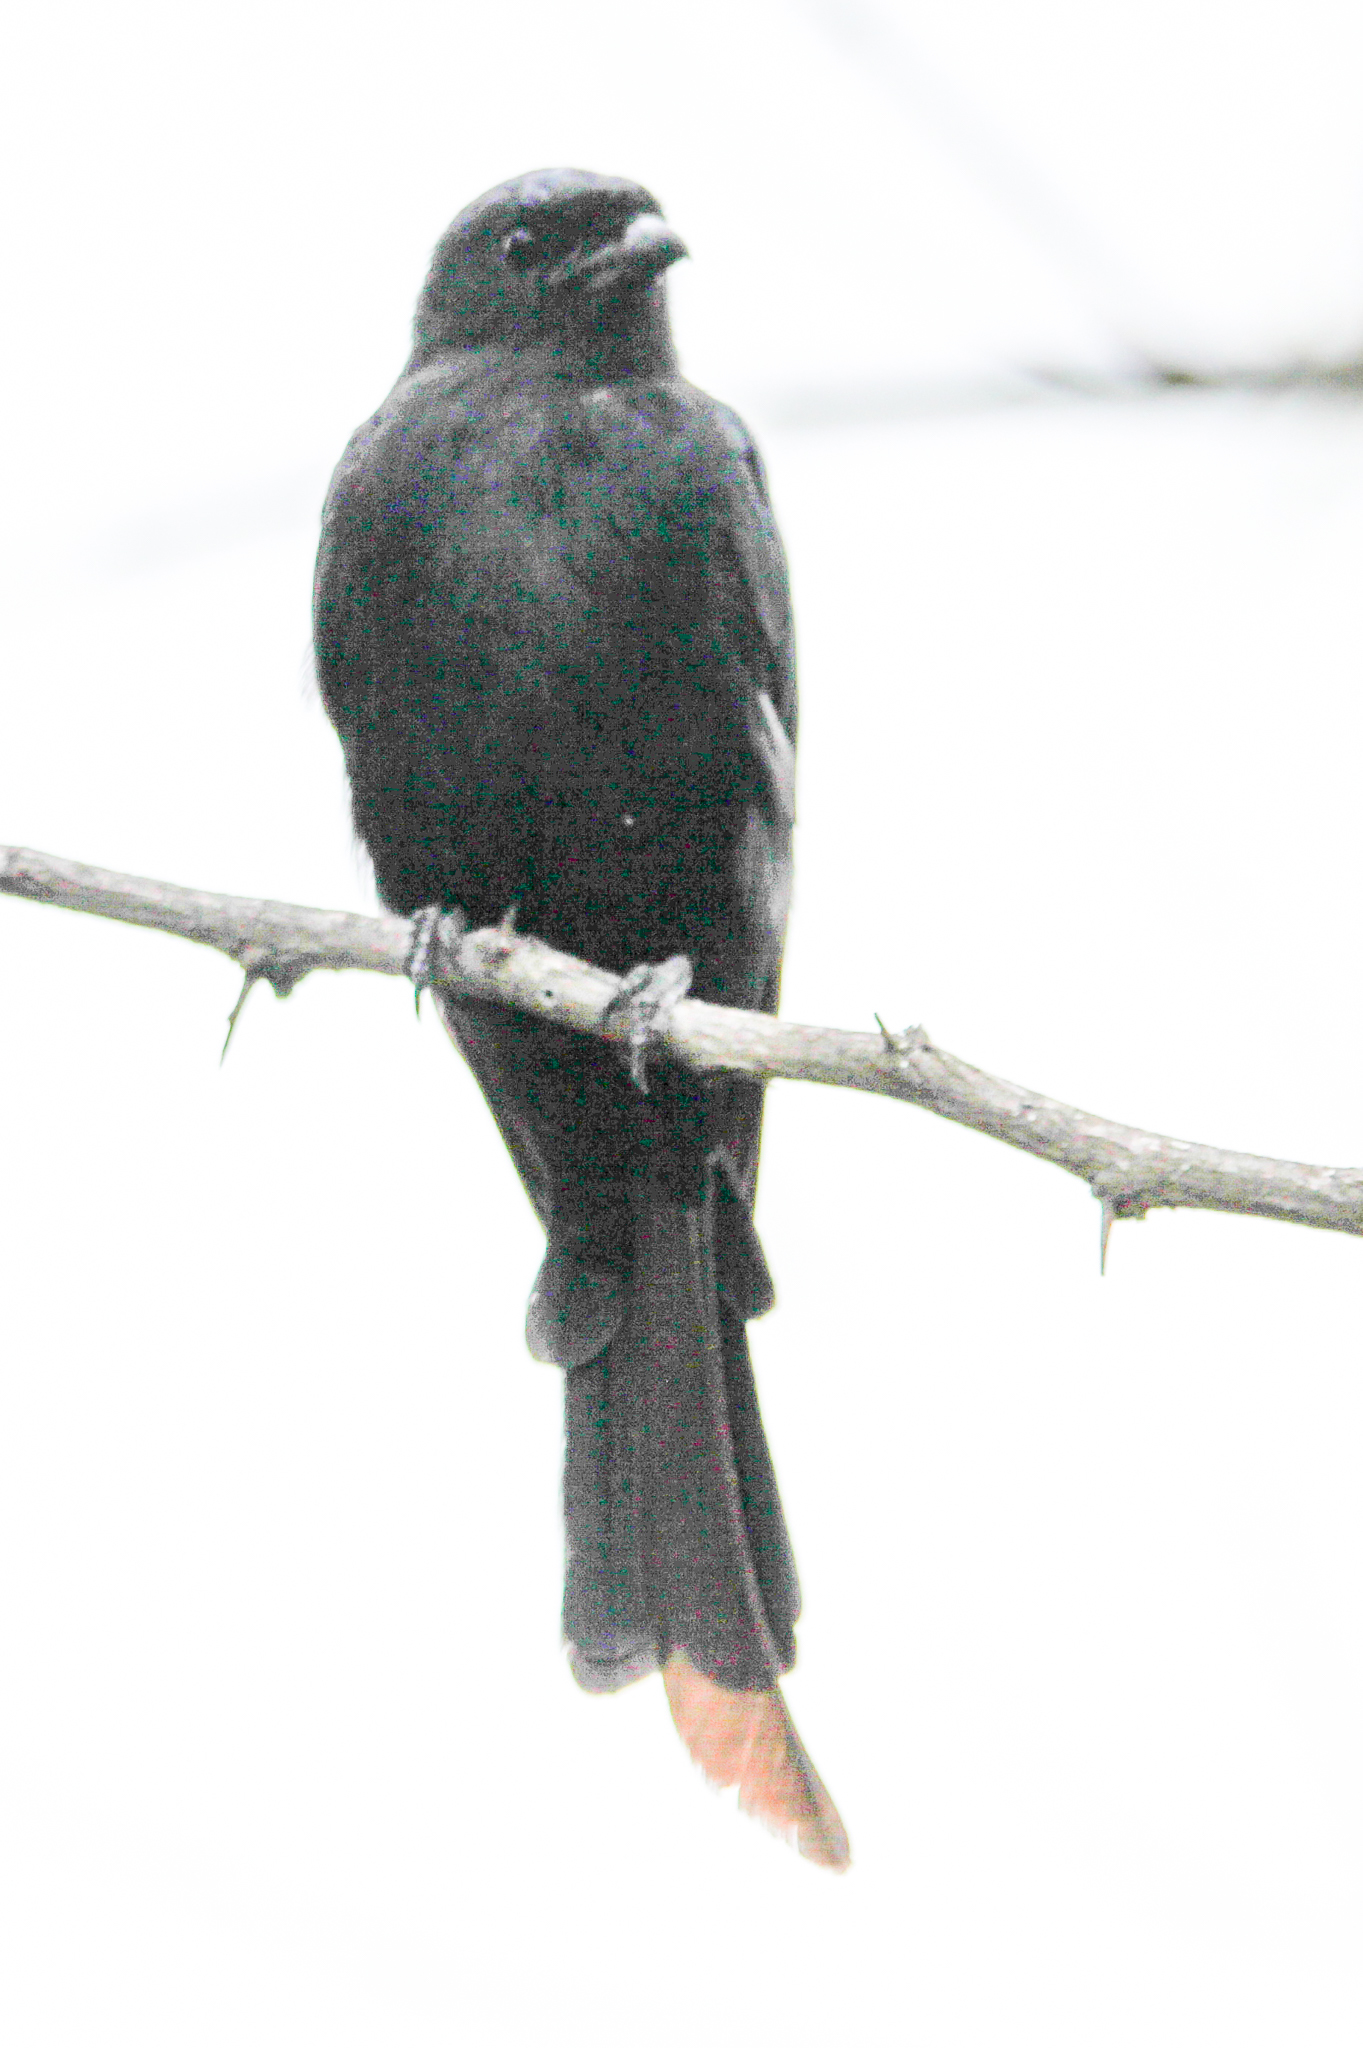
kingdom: Animalia
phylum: Chordata
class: Aves
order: Passeriformes
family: Dicruridae
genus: Dicrurus
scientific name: Dicrurus adsimilis
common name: Fork-tailed drongo
